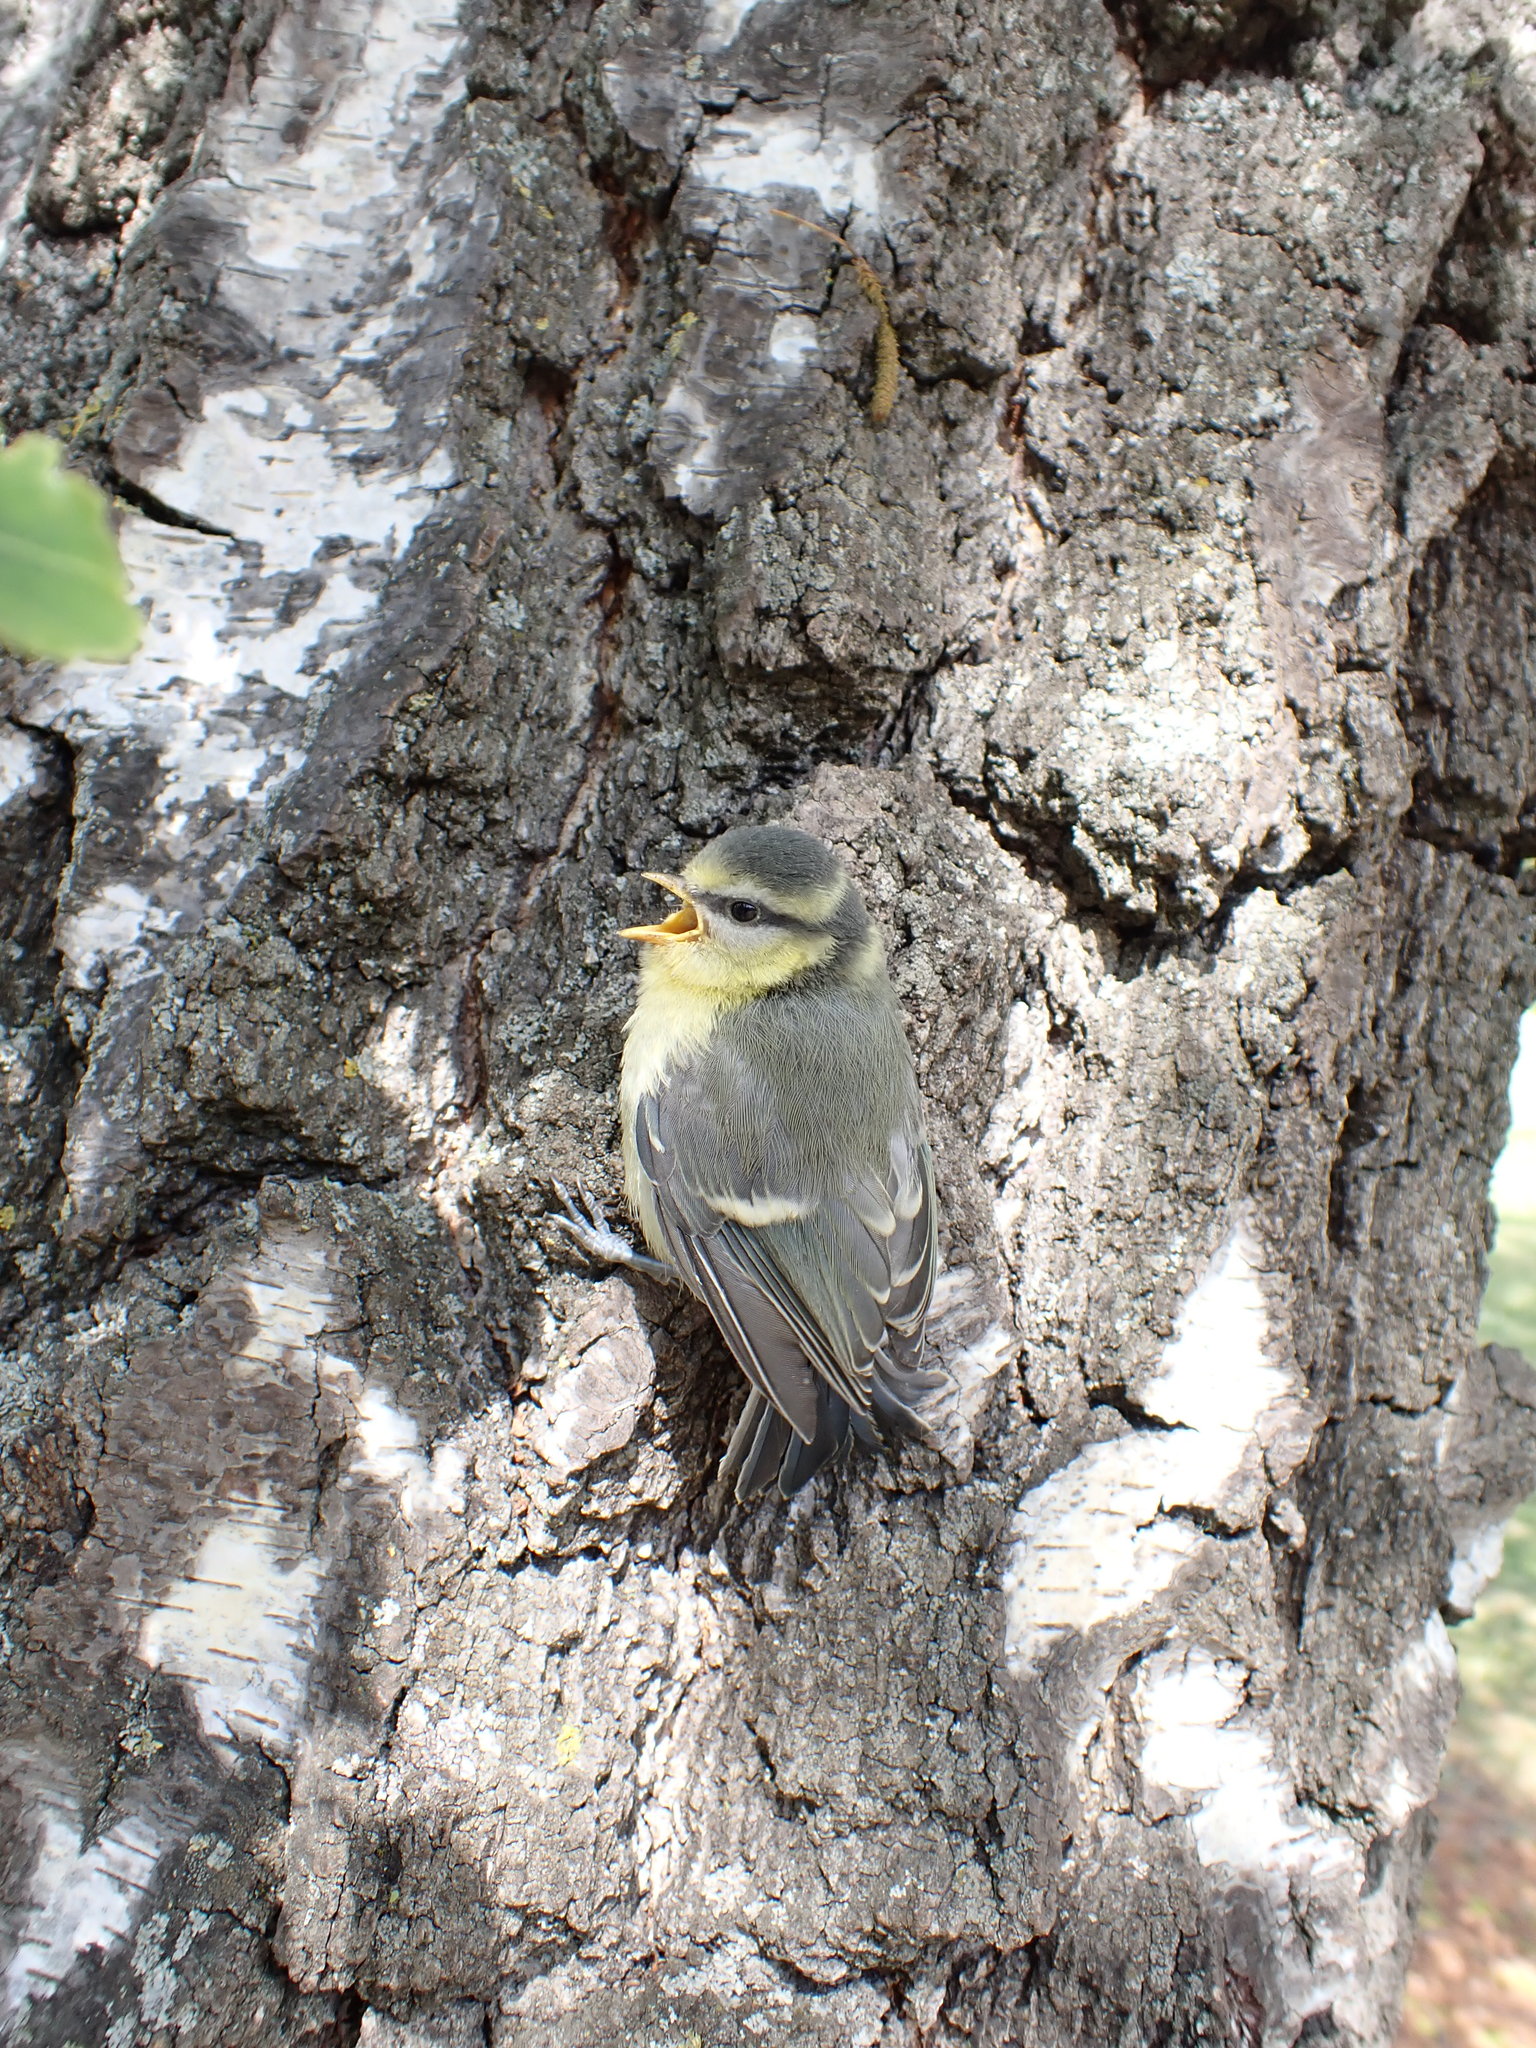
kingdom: Animalia
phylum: Chordata
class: Aves
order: Passeriformes
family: Paridae
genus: Cyanistes
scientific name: Cyanistes caeruleus
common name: Eurasian blue tit
